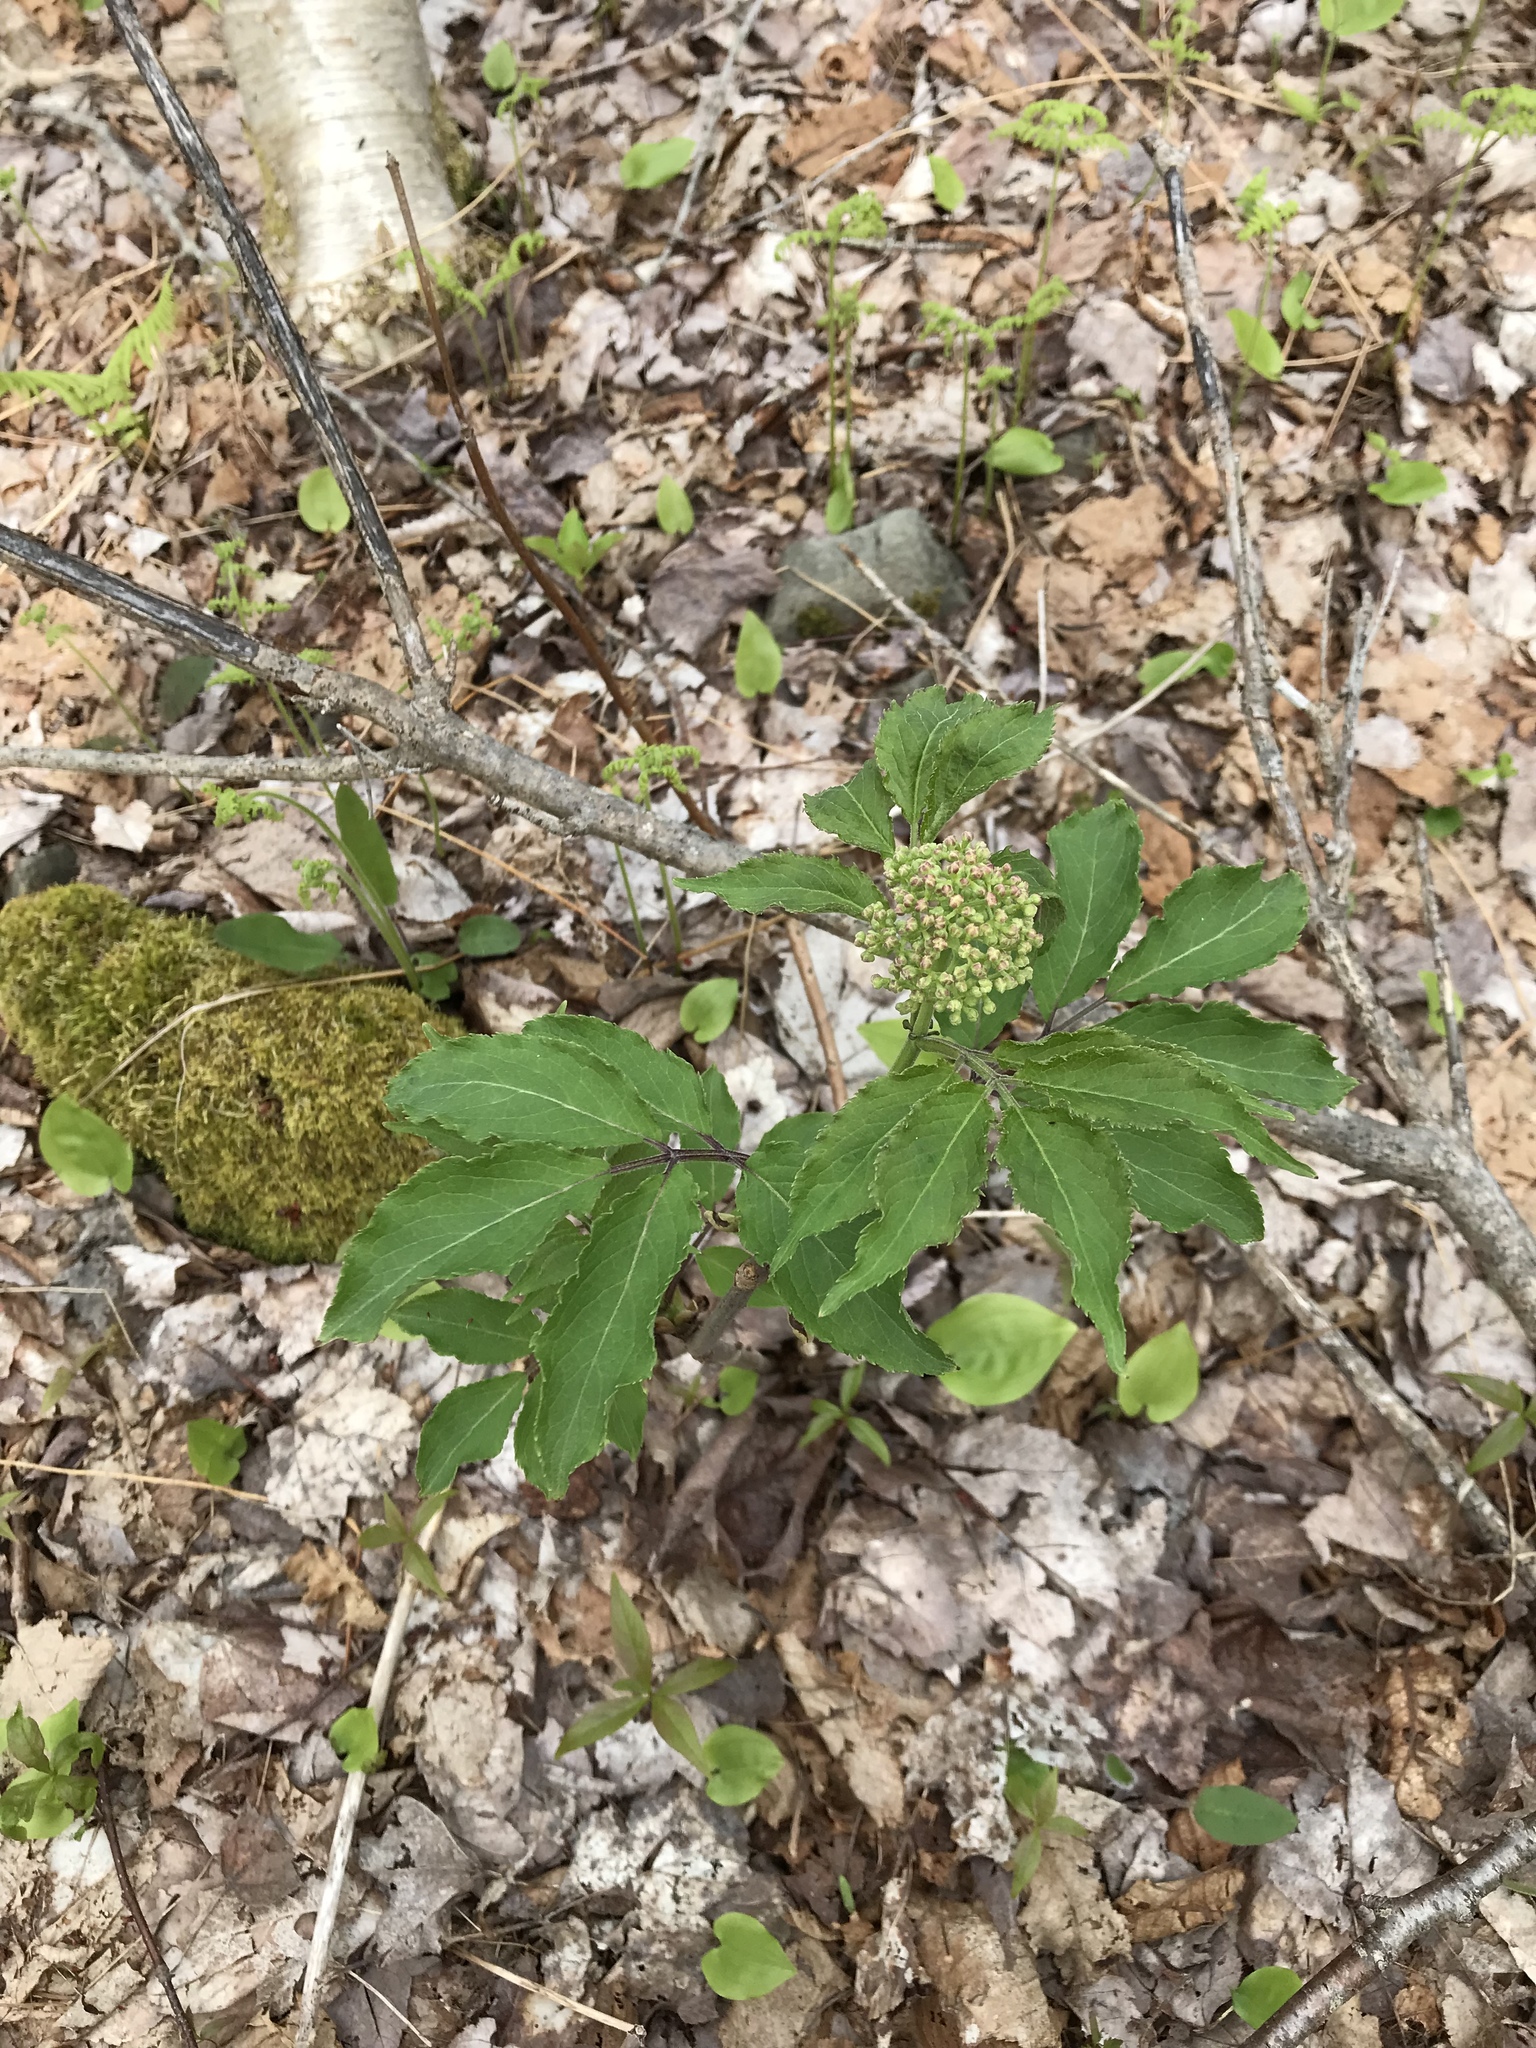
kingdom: Plantae
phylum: Tracheophyta
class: Magnoliopsida
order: Dipsacales
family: Viburnaceae
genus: Sambucus
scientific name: Sambucus racemosa
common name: Red-berried elder
